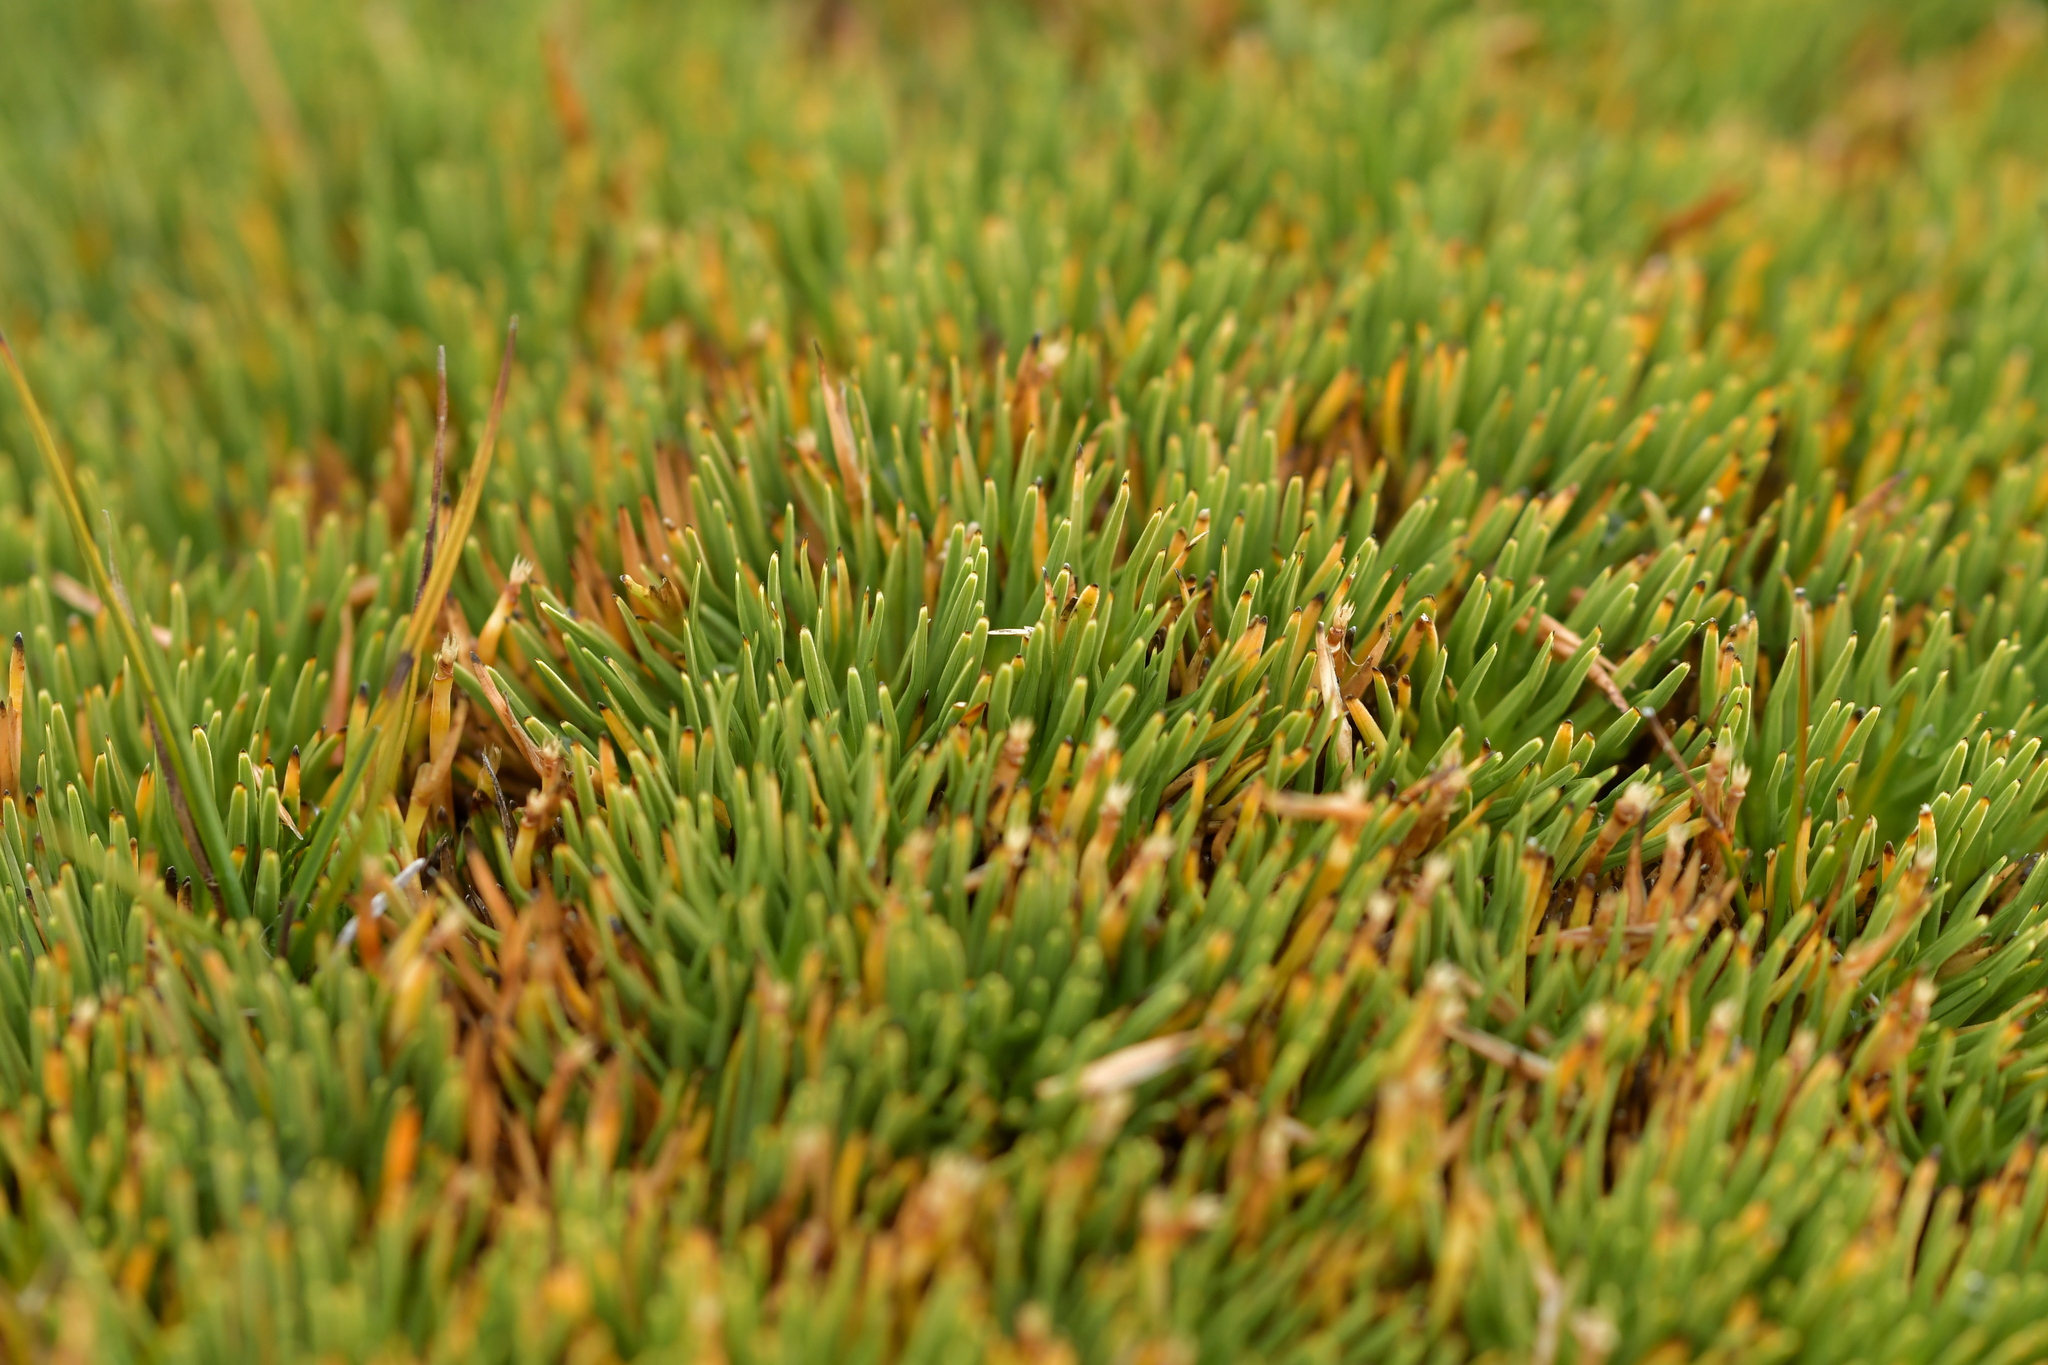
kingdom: Plantae
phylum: Tracheophyta
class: Liliopsida
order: Poales
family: Cyperaceae
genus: Oreobolus
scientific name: Oreobolus pectinatus
